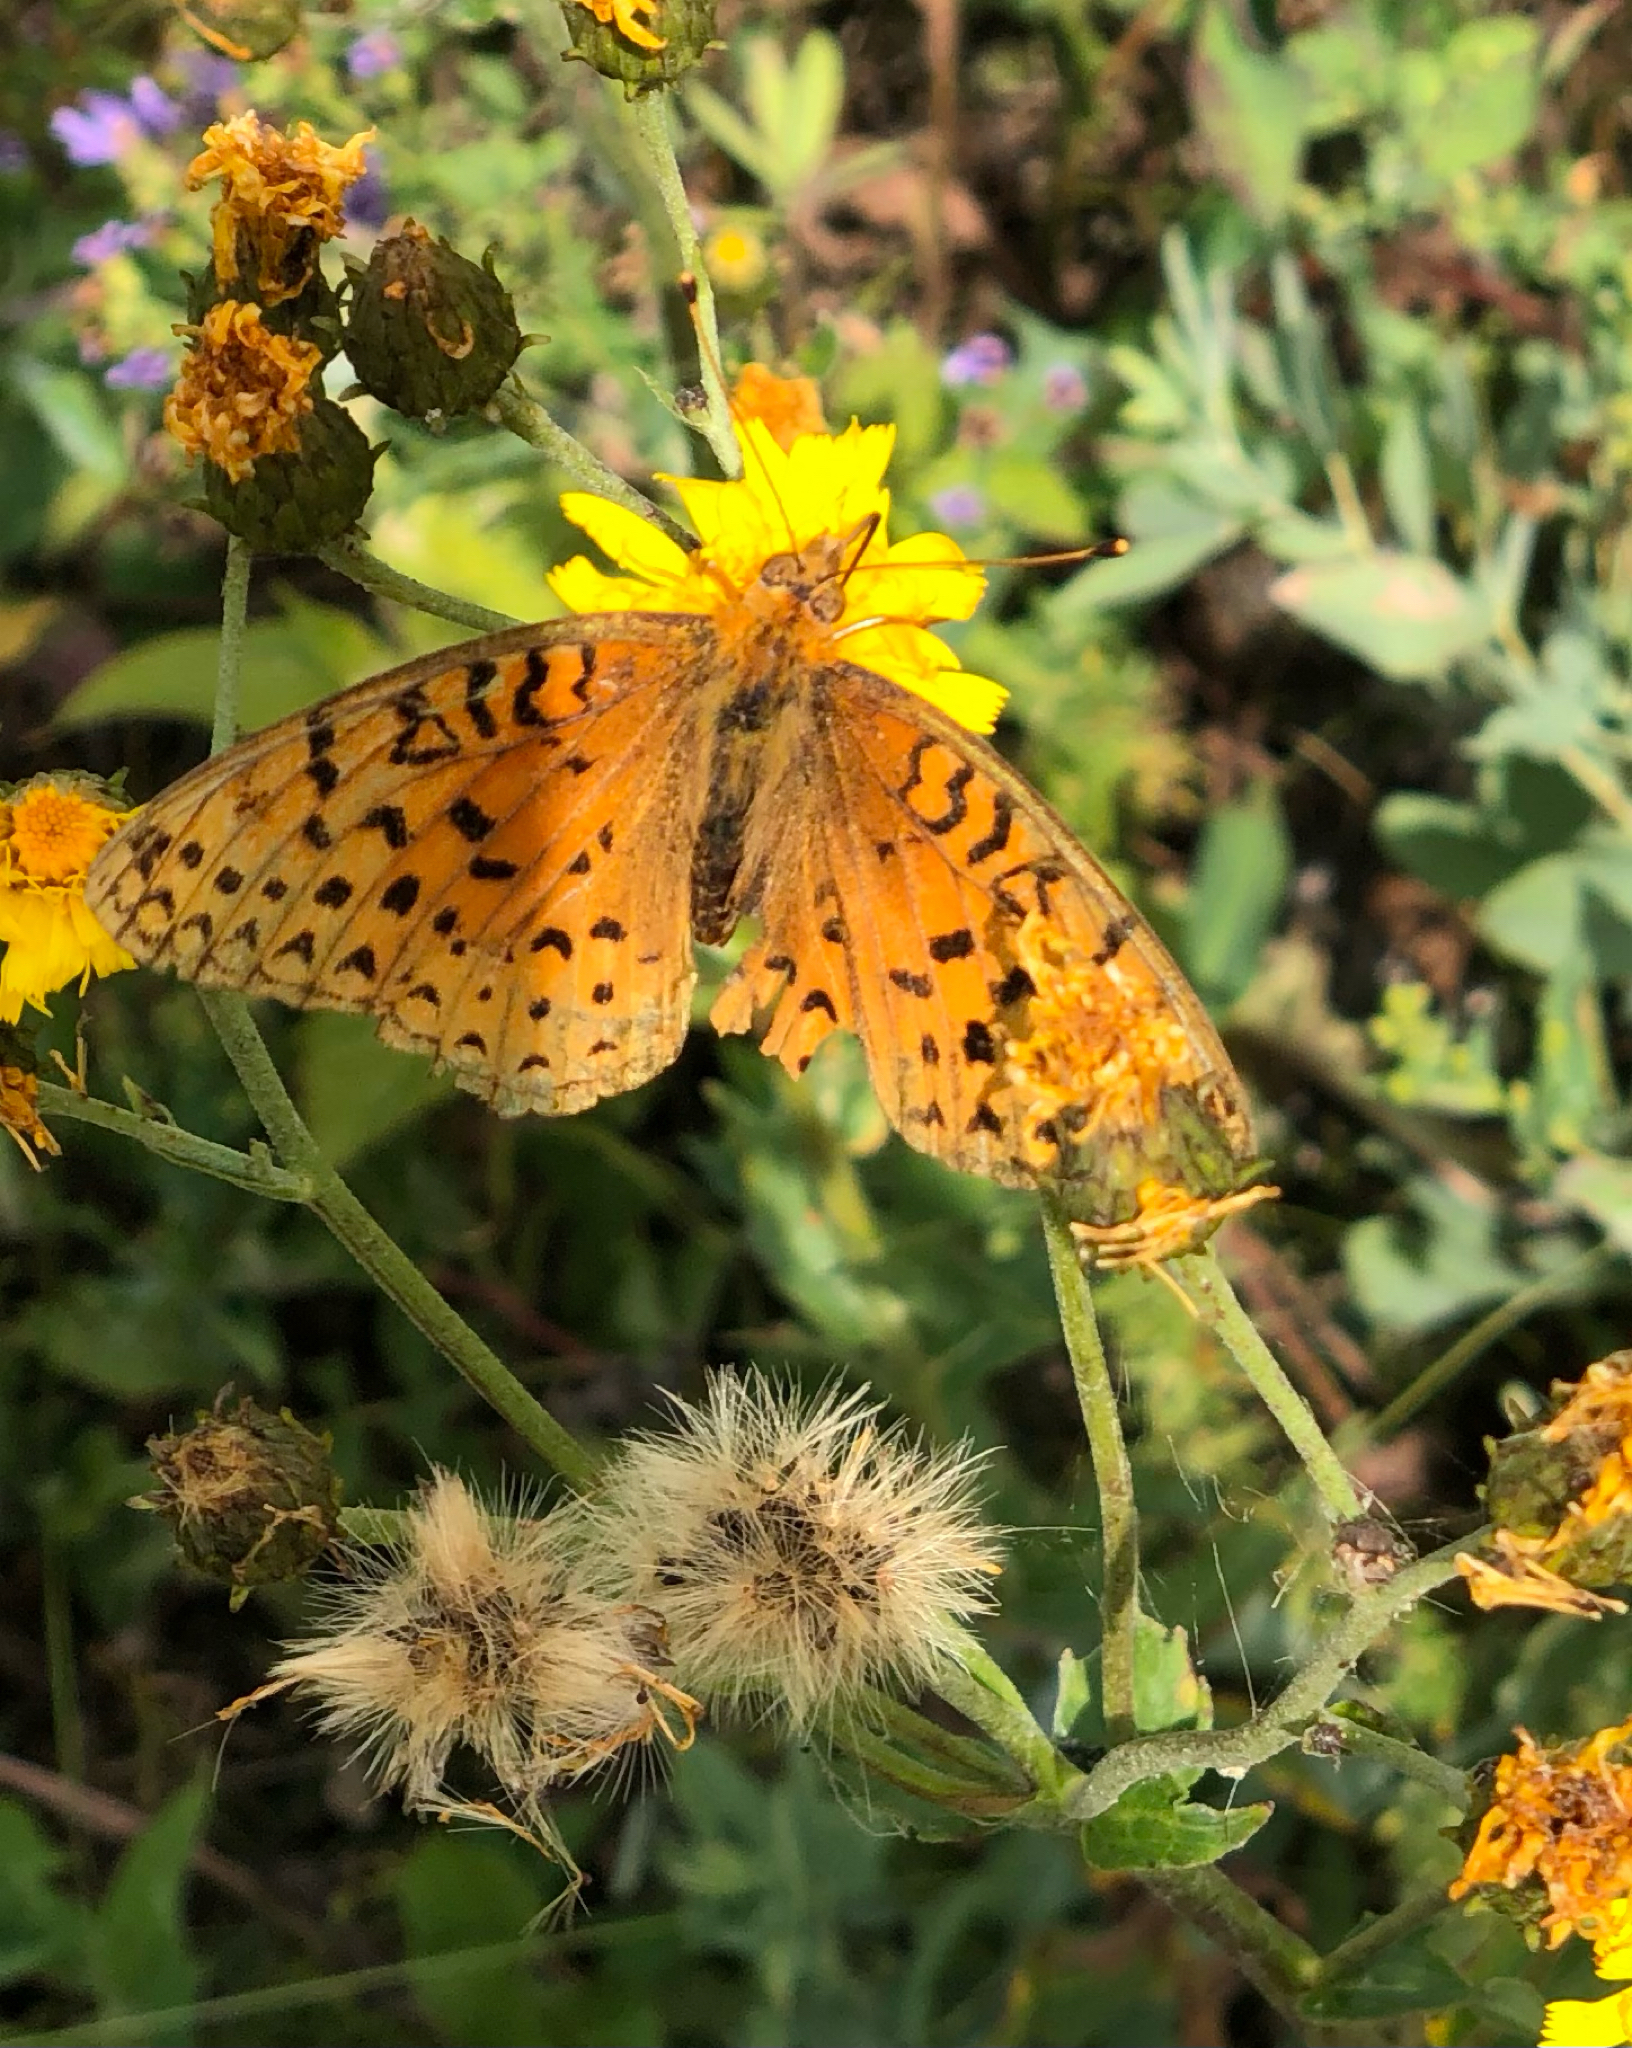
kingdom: Animalia
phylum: Arthropoda
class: Insecta
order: Lepidoptera
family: Nymphalidae
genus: Speyeria
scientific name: Speyeria aphrodite
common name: Aphrodite friitllary
